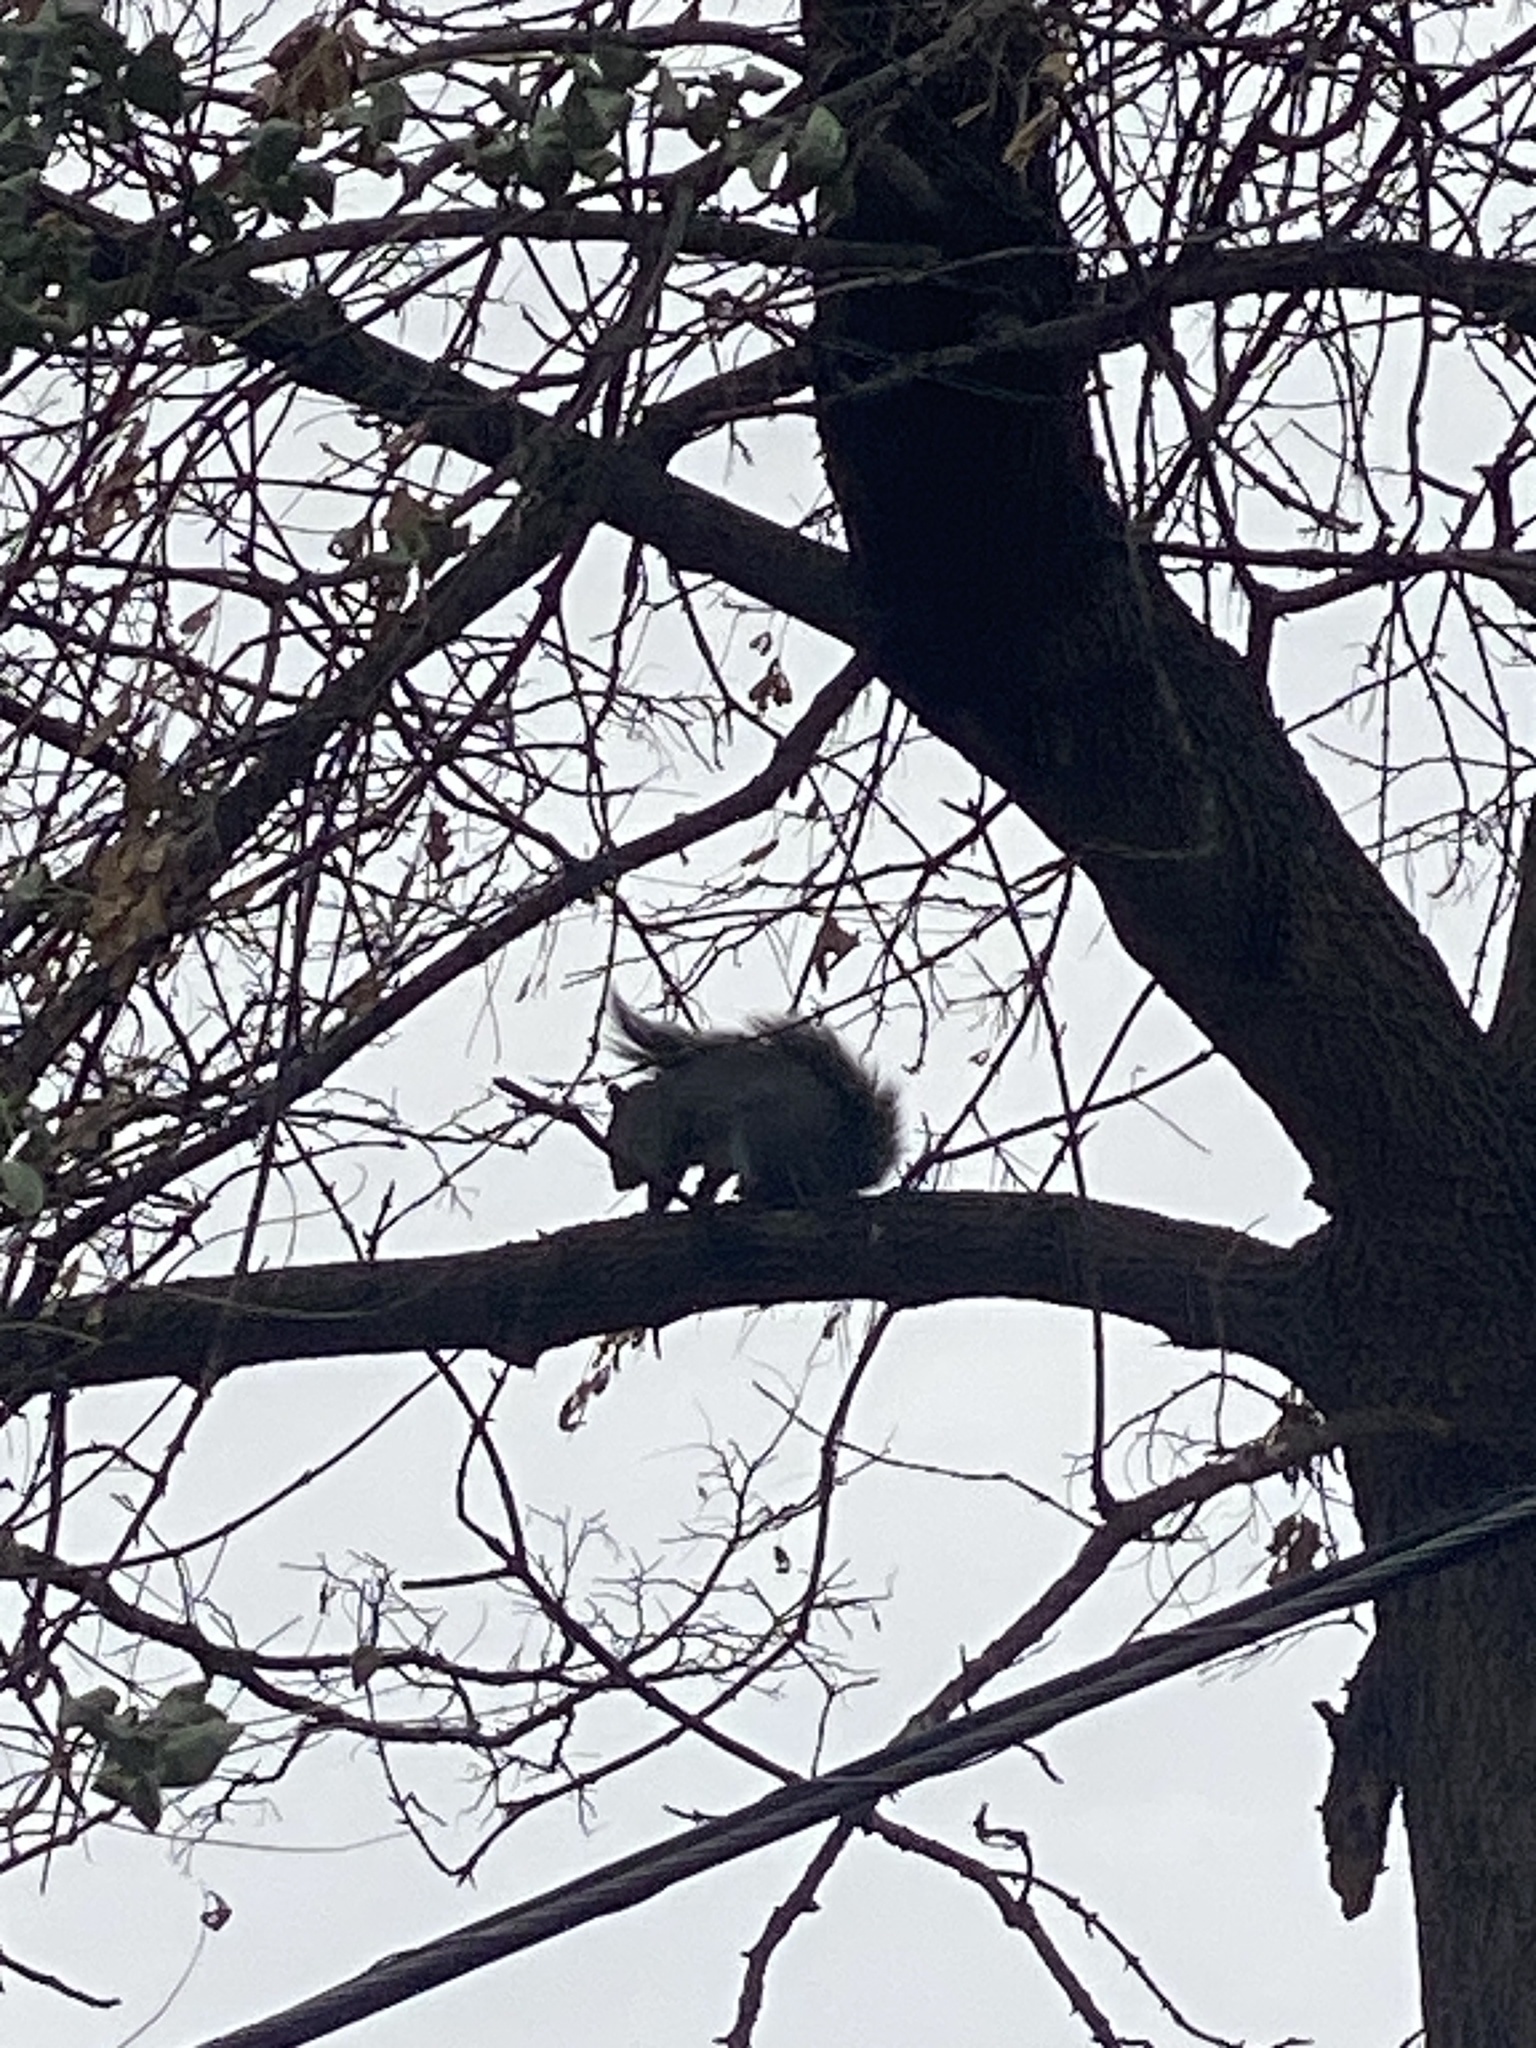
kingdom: Animalia
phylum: Chordata
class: Mammalia
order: Rodentia
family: Sciuridae
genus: Sciurus
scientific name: Sciurus carolinensis
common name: Eastern gray squirrel
